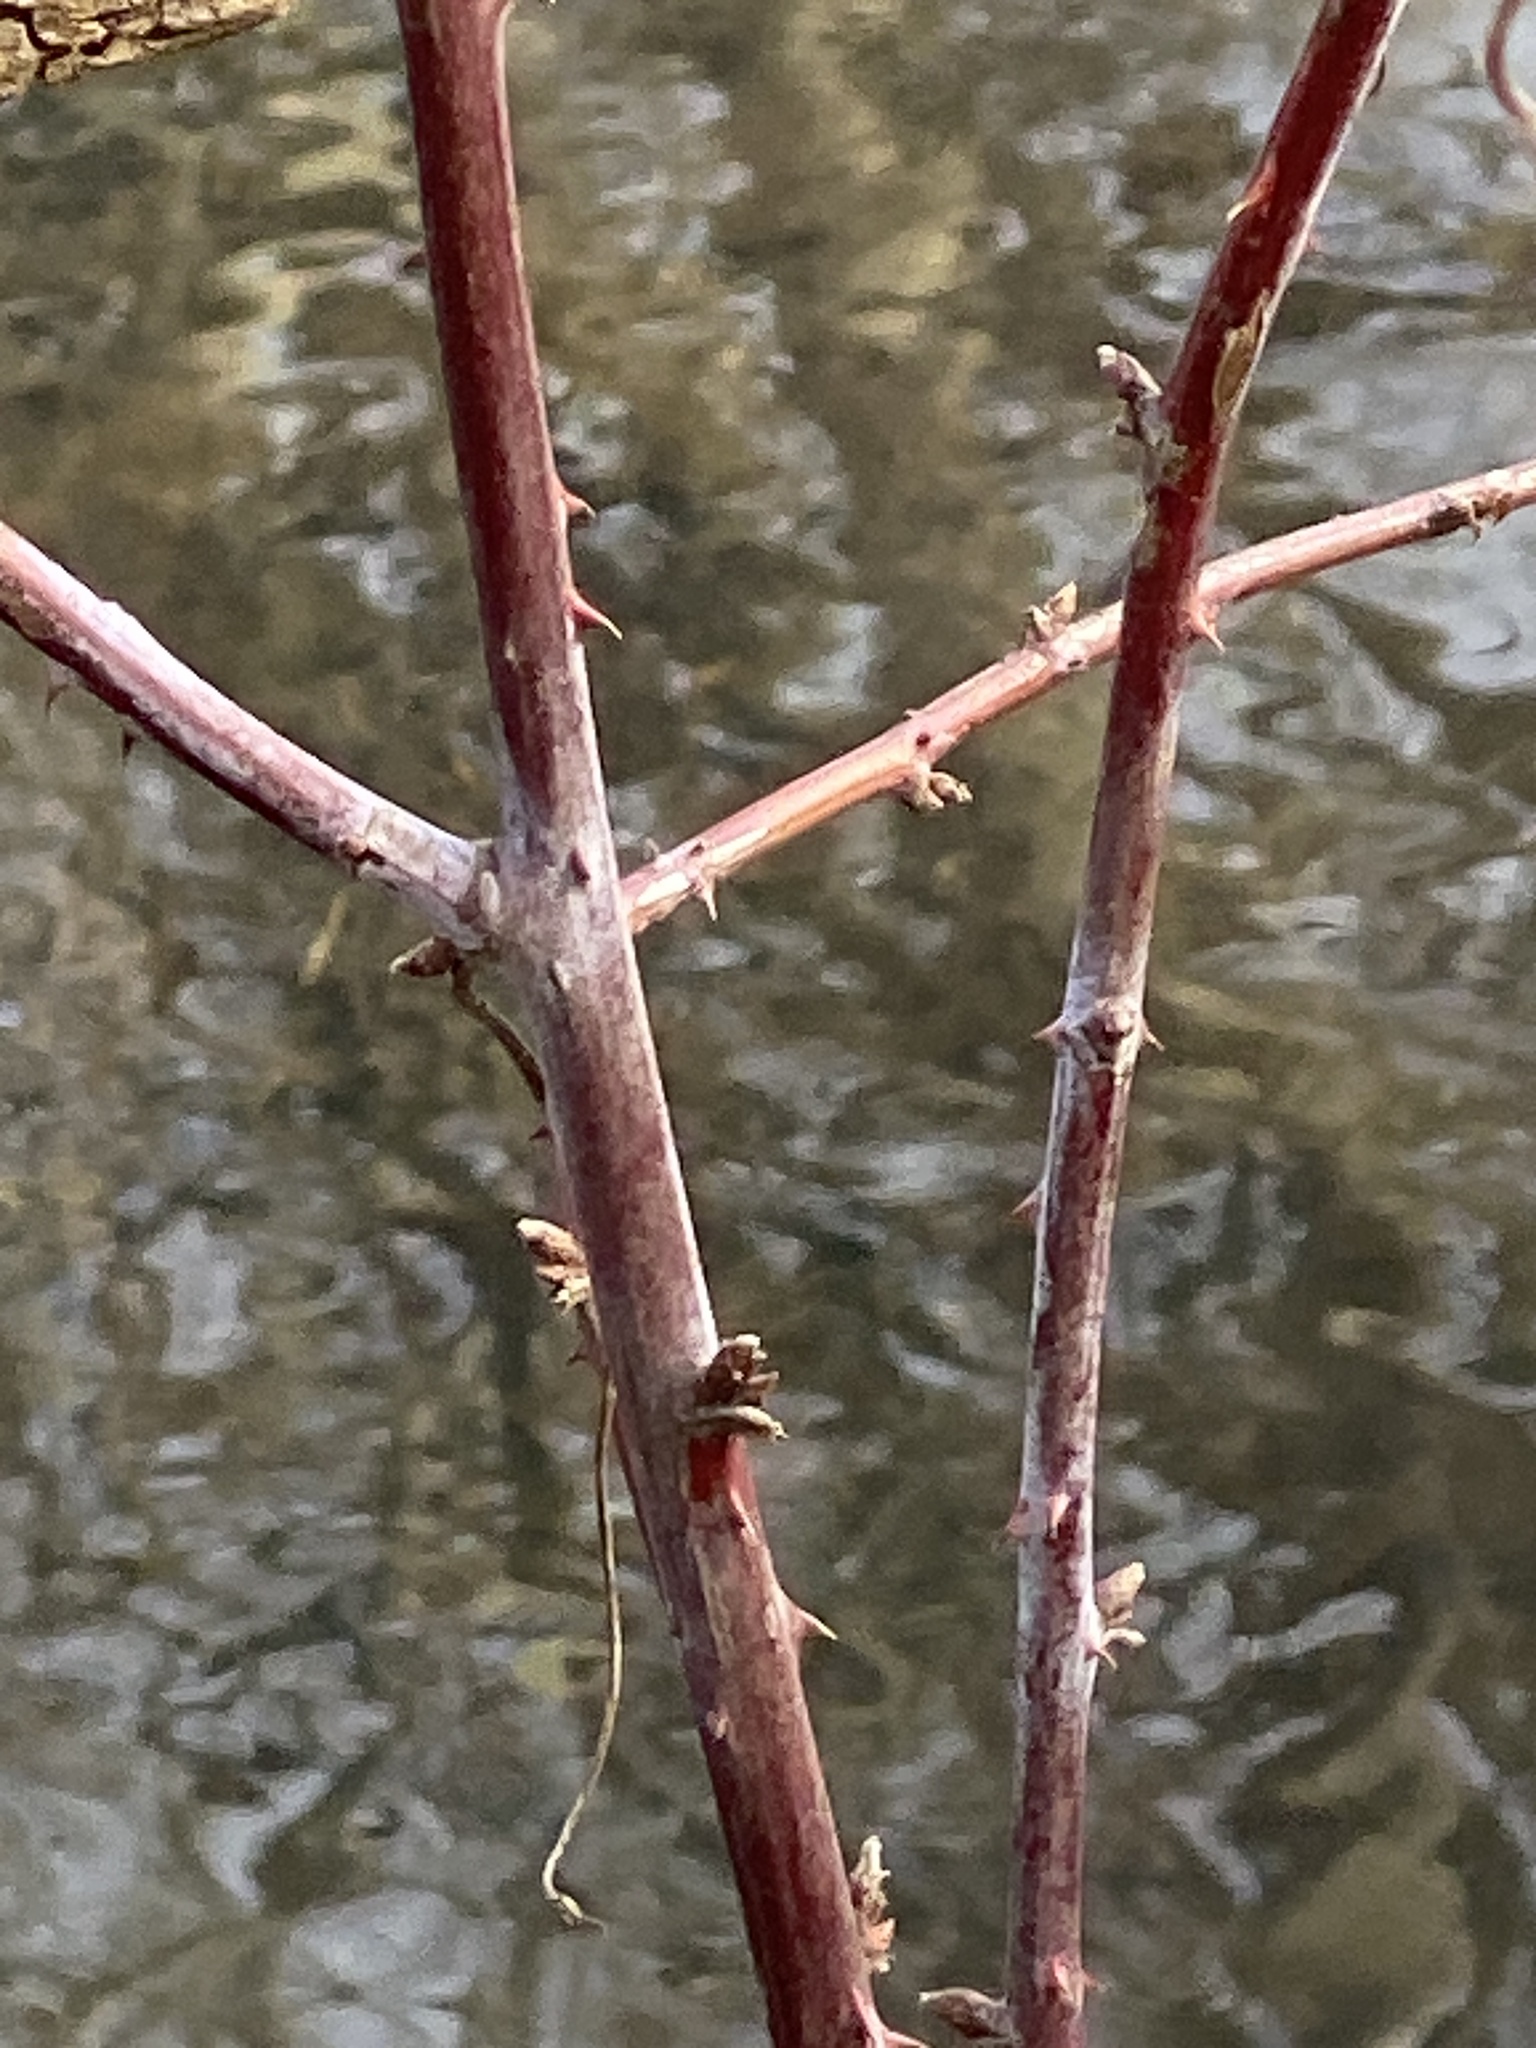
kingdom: Plantae
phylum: Tracheophyta
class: Magnoliopsida
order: Rosales
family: Rosaceae
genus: Rubus
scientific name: Rubus occidentalis
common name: Black raspberry
